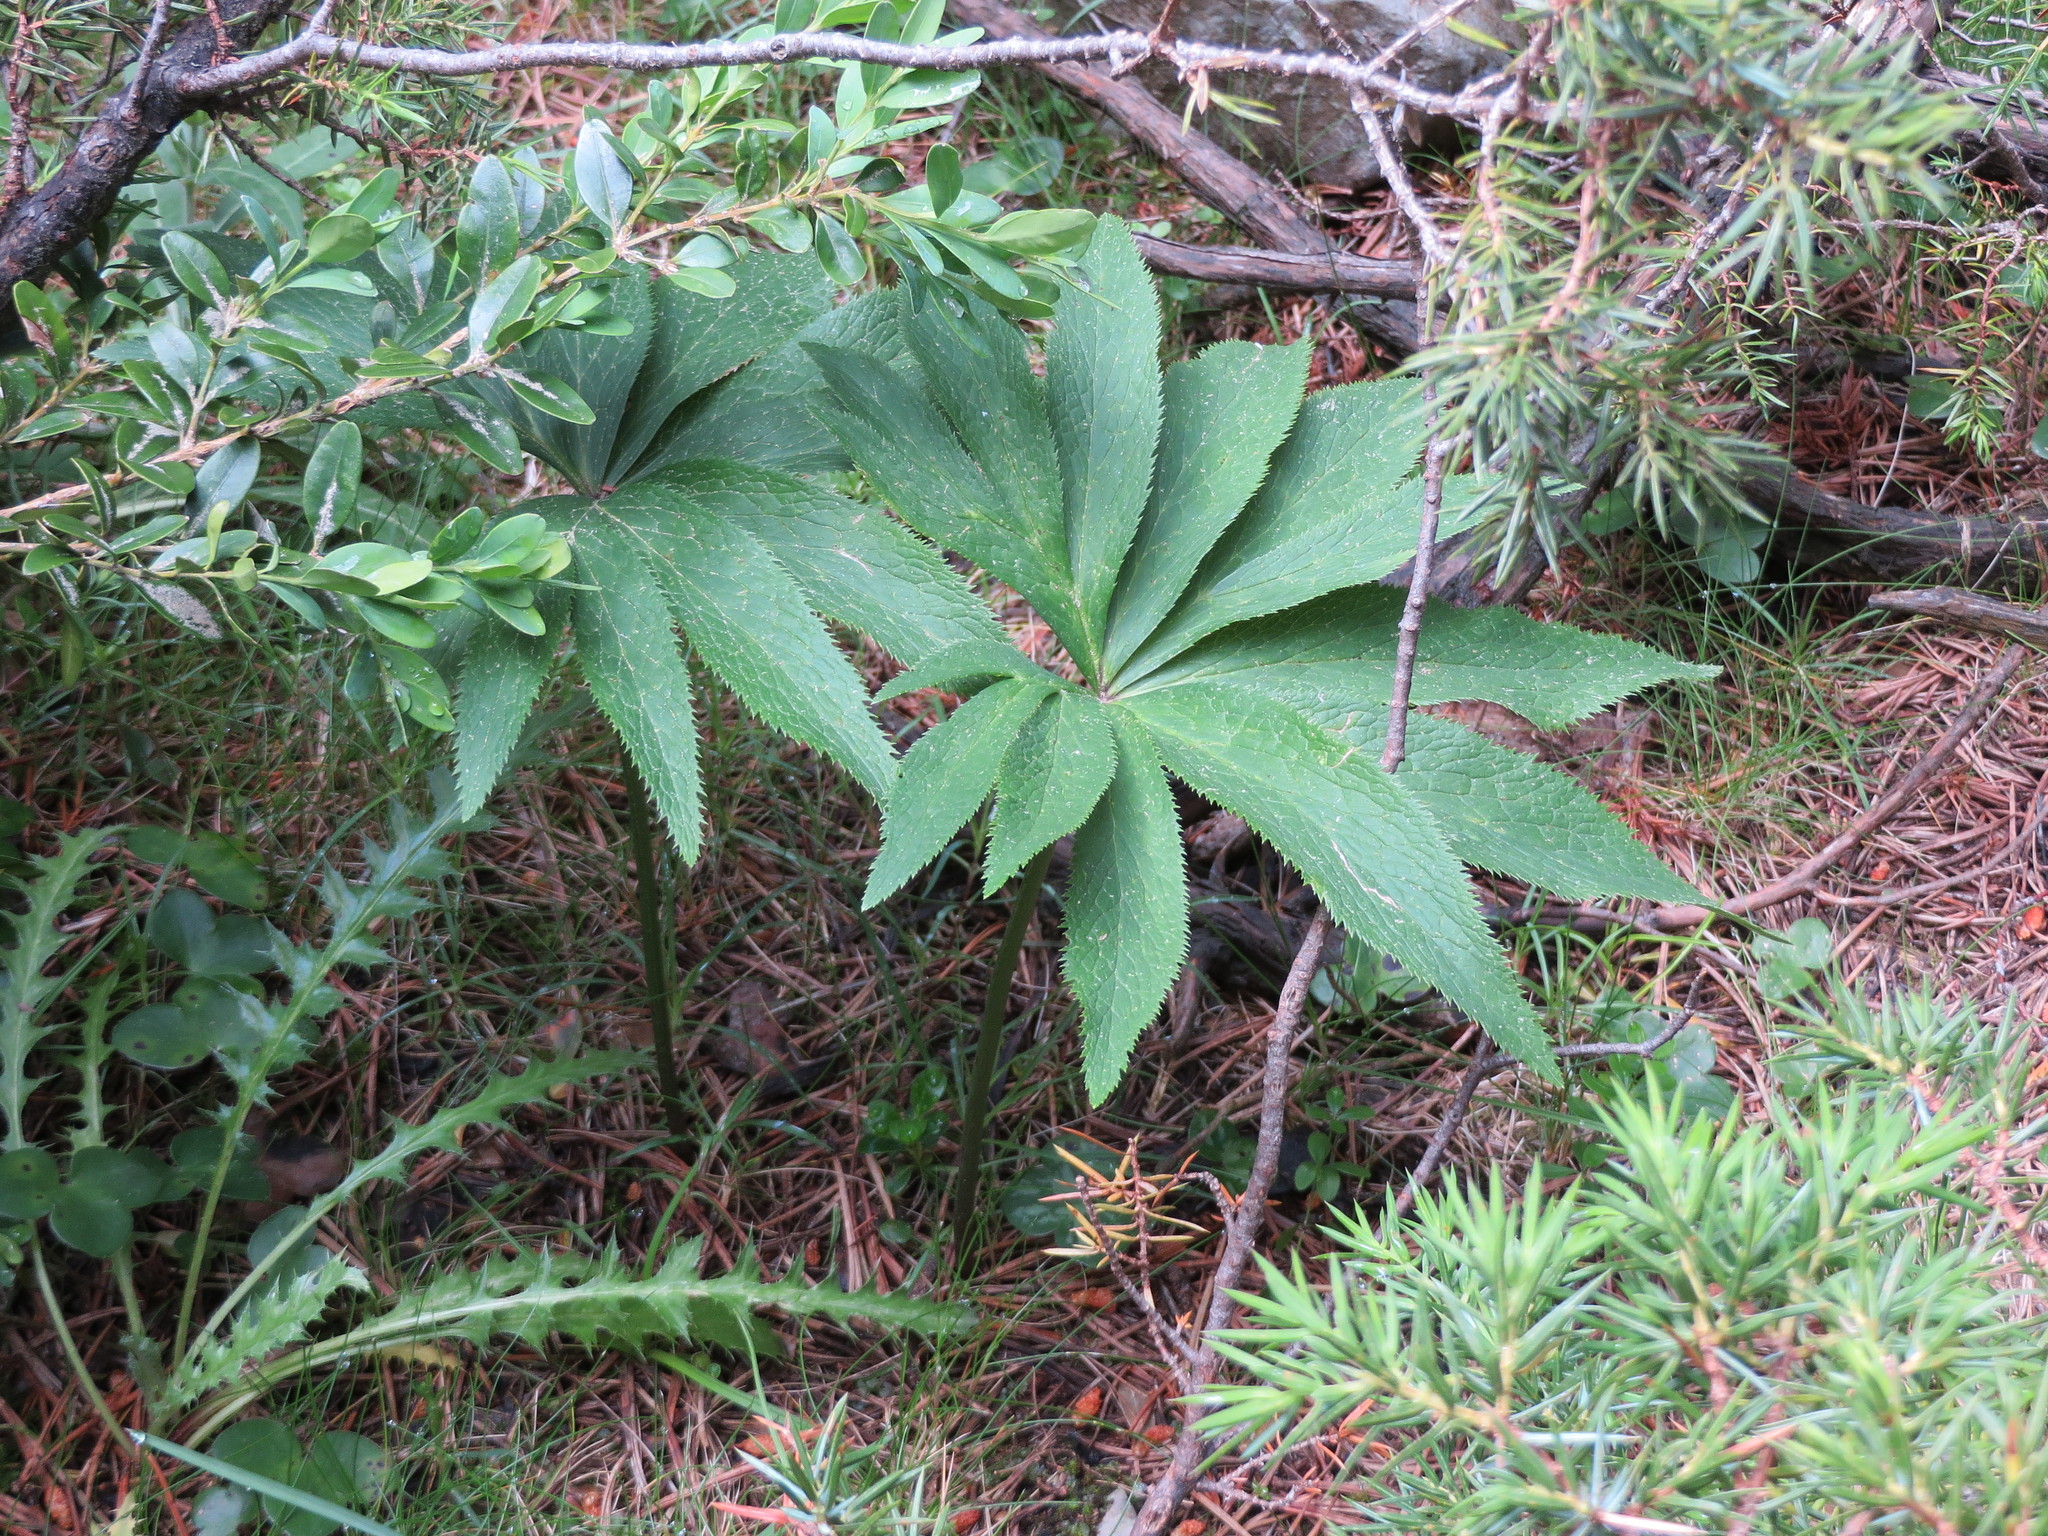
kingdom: Plantae
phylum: Tracheophyta
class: Magnoliopsida
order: Ranunculales
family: Ranunculaceae
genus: Helleborus
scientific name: Helleborus viridis
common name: Green hellebore
